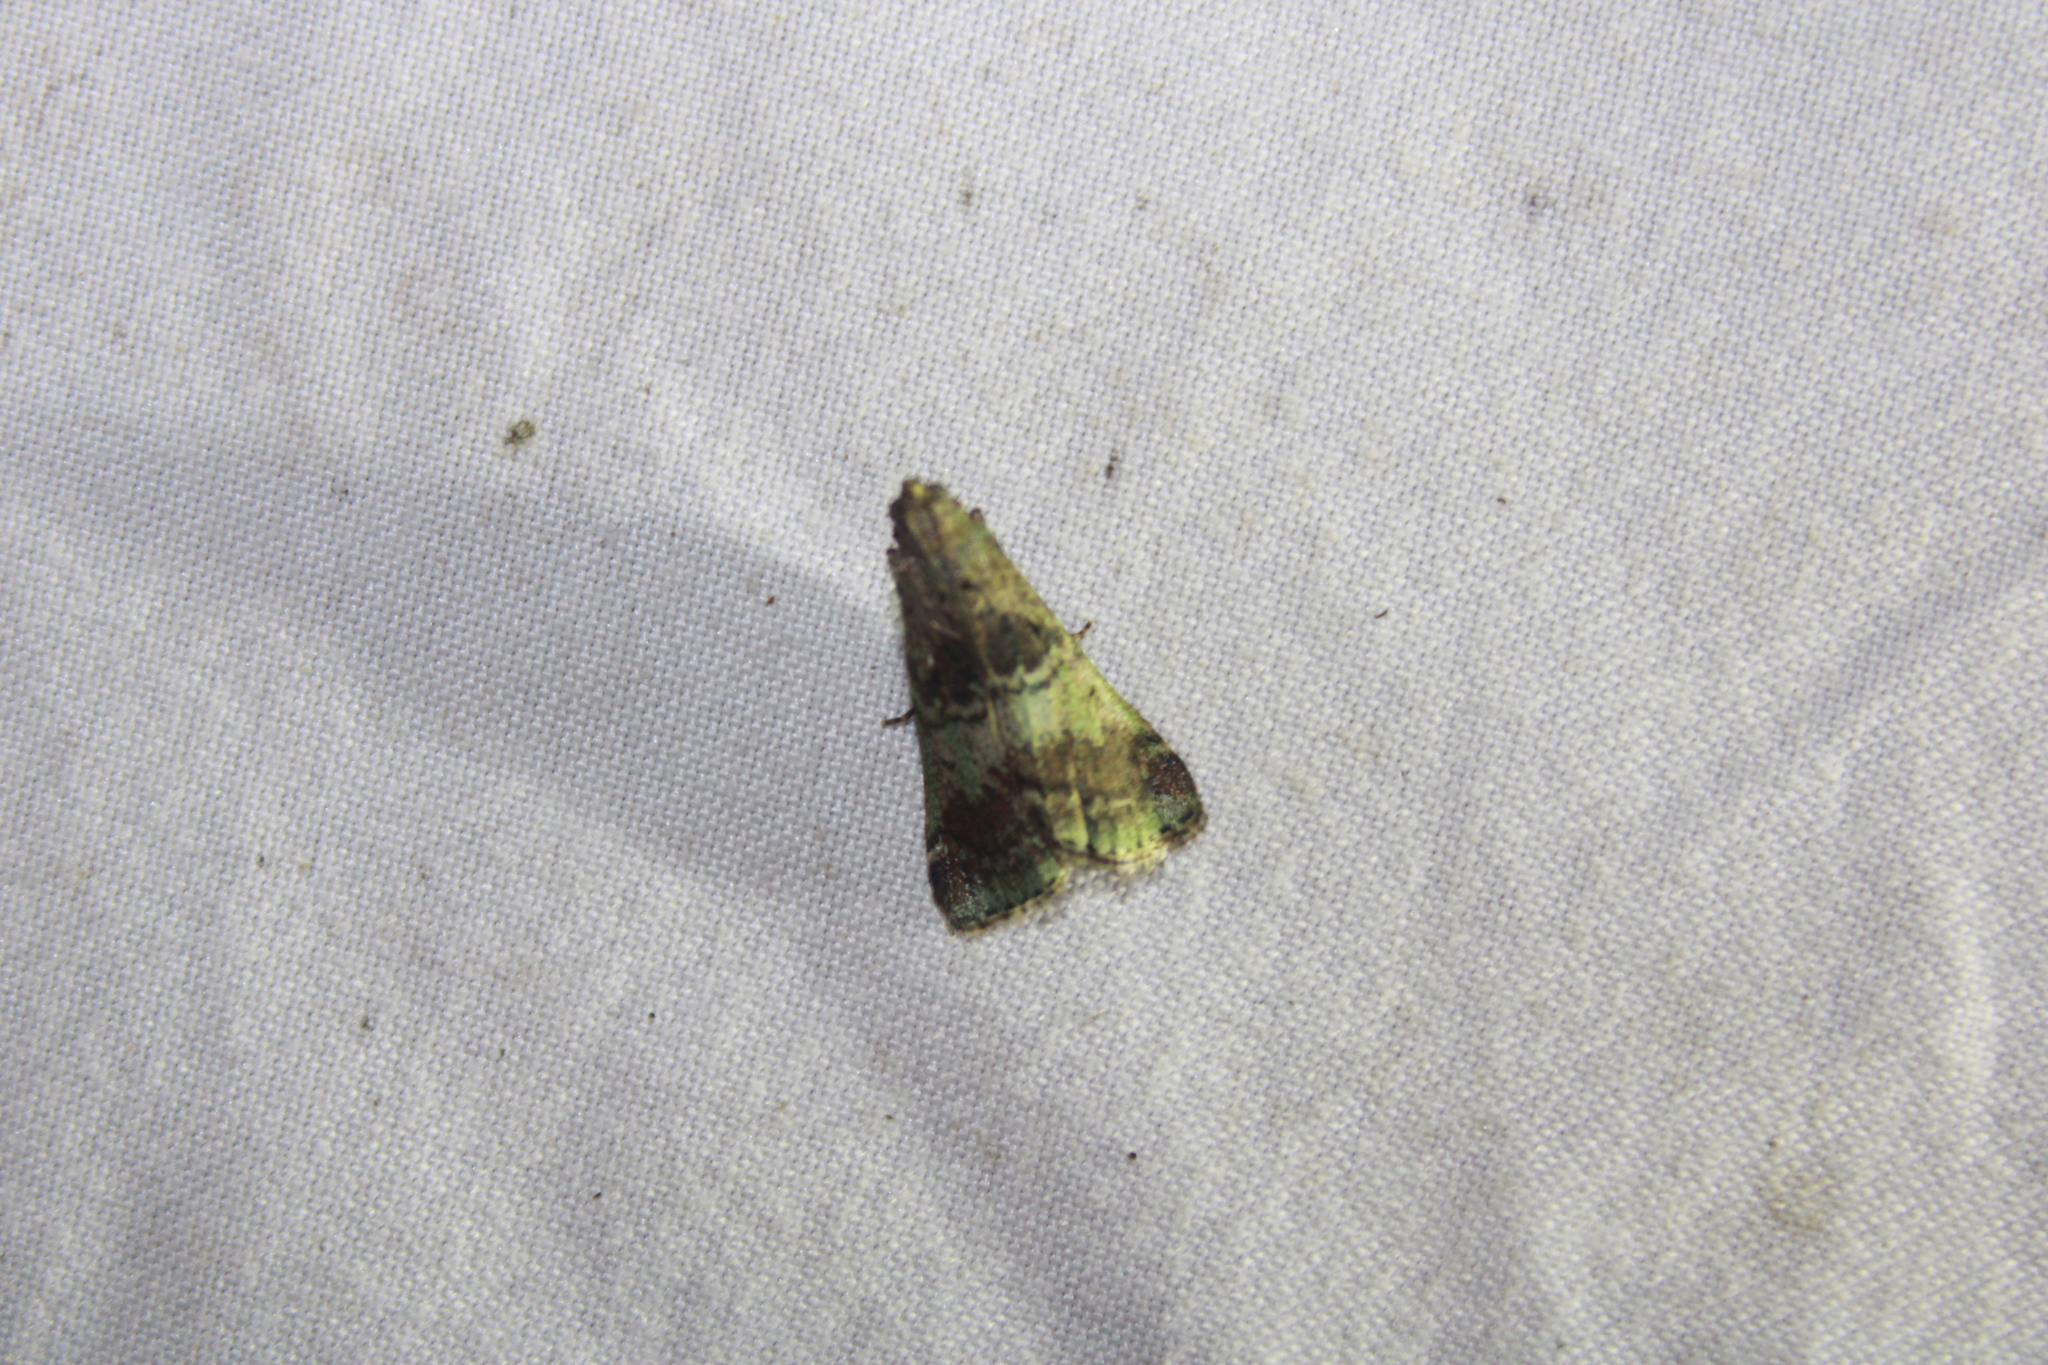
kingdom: Animalia
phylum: Arthropoda
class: Insecta
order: Lepidoptera
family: Pyralidae
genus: Deuterollyta
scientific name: Deuterollyta majuscula
